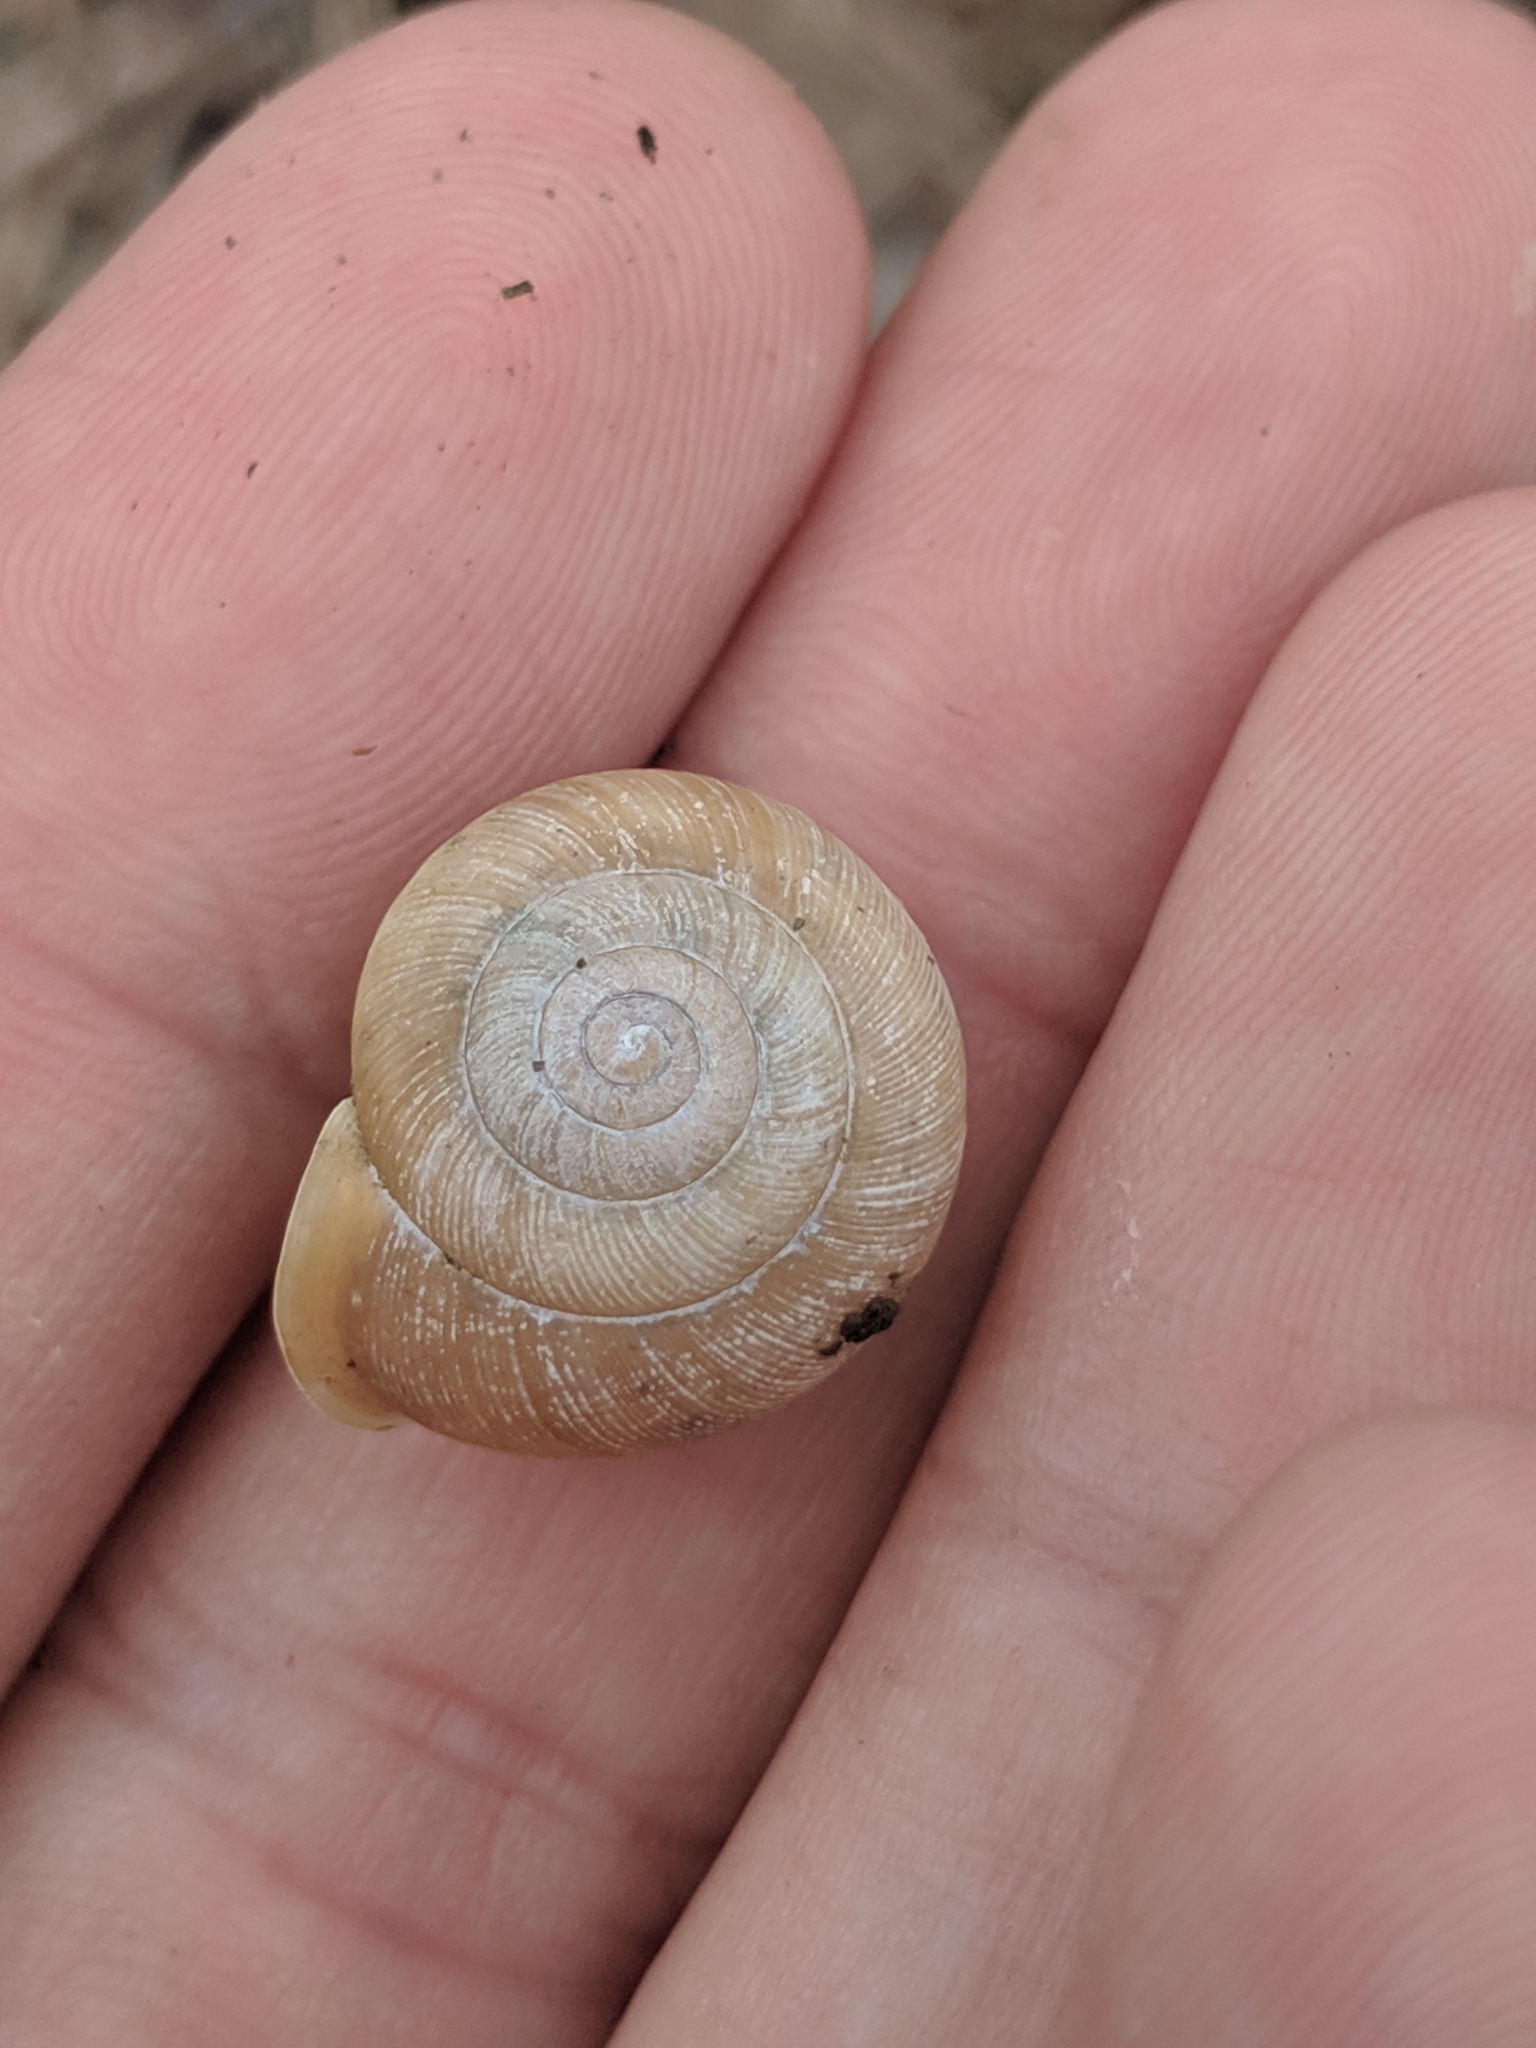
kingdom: Animalia
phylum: Mollusca
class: Gastropoda
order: Stylommatophora
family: Polygyridae
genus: Mesodon
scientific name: Mesodon thyroidus
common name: White-lip globe
